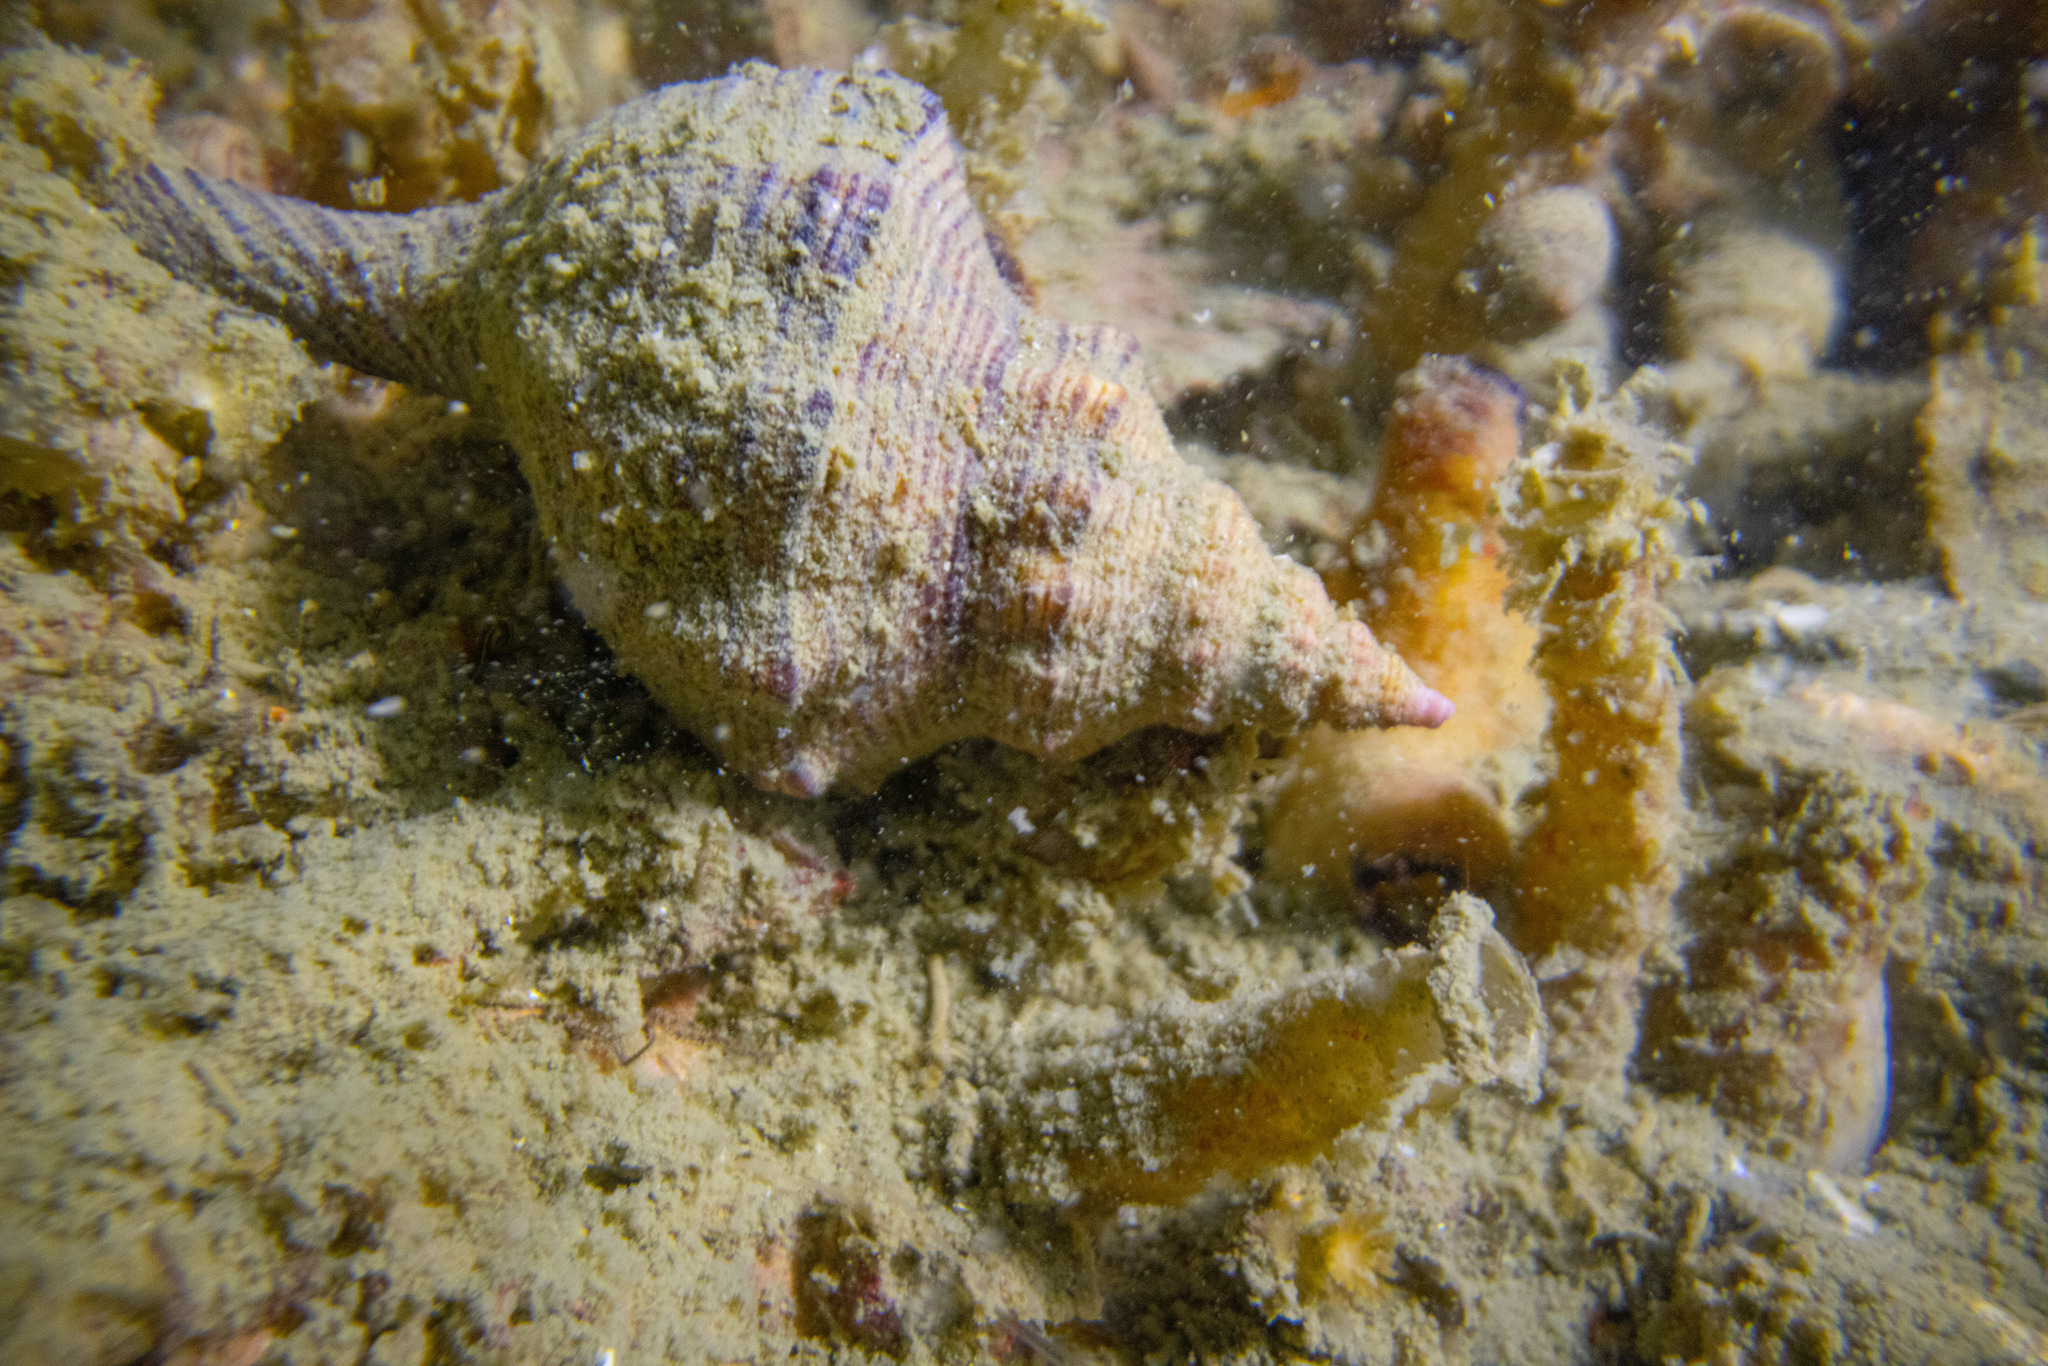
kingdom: Animalia
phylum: Mollusca
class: Gastropoda
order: Neogastropoda
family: Austrosiphonidae
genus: Penion
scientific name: Penion sulcatus
